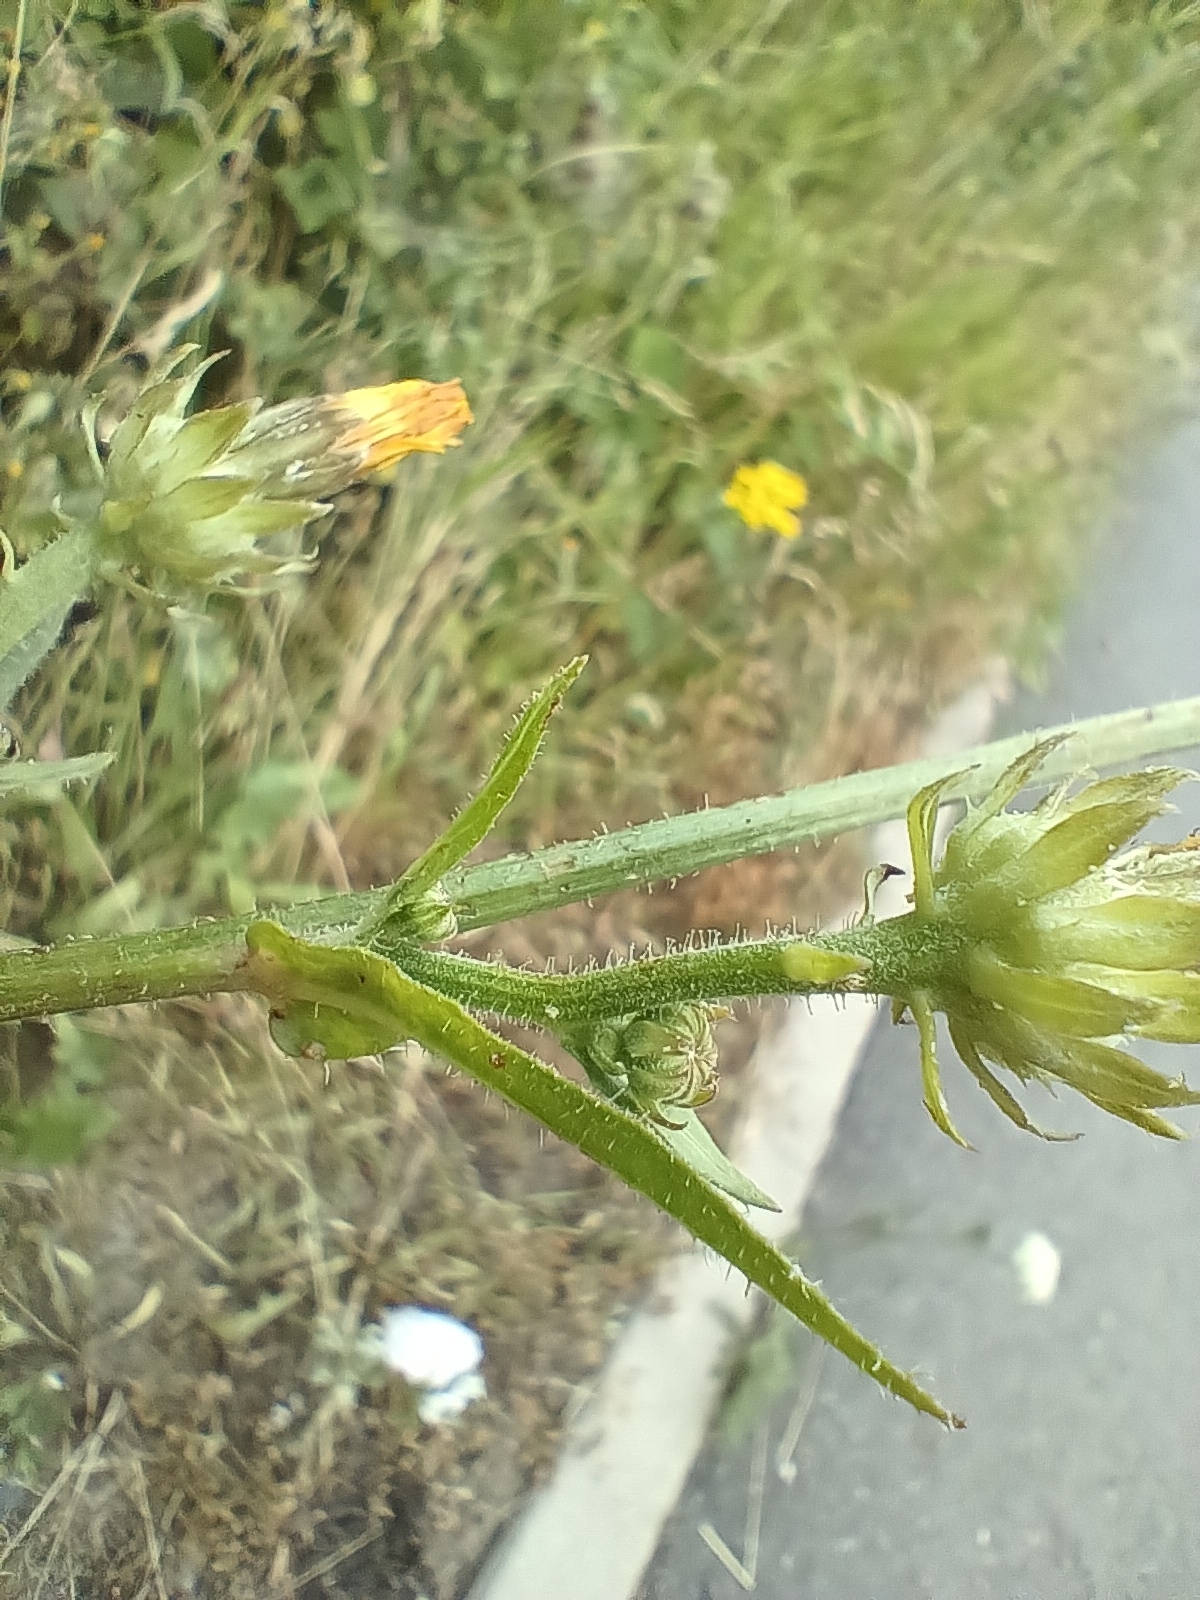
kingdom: Plantae
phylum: Tracheophyta
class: Magnoliopsida
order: Asterales
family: Asteraceae
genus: Picris
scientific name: Picris hieracioides
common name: Hawkweed oxtongue
